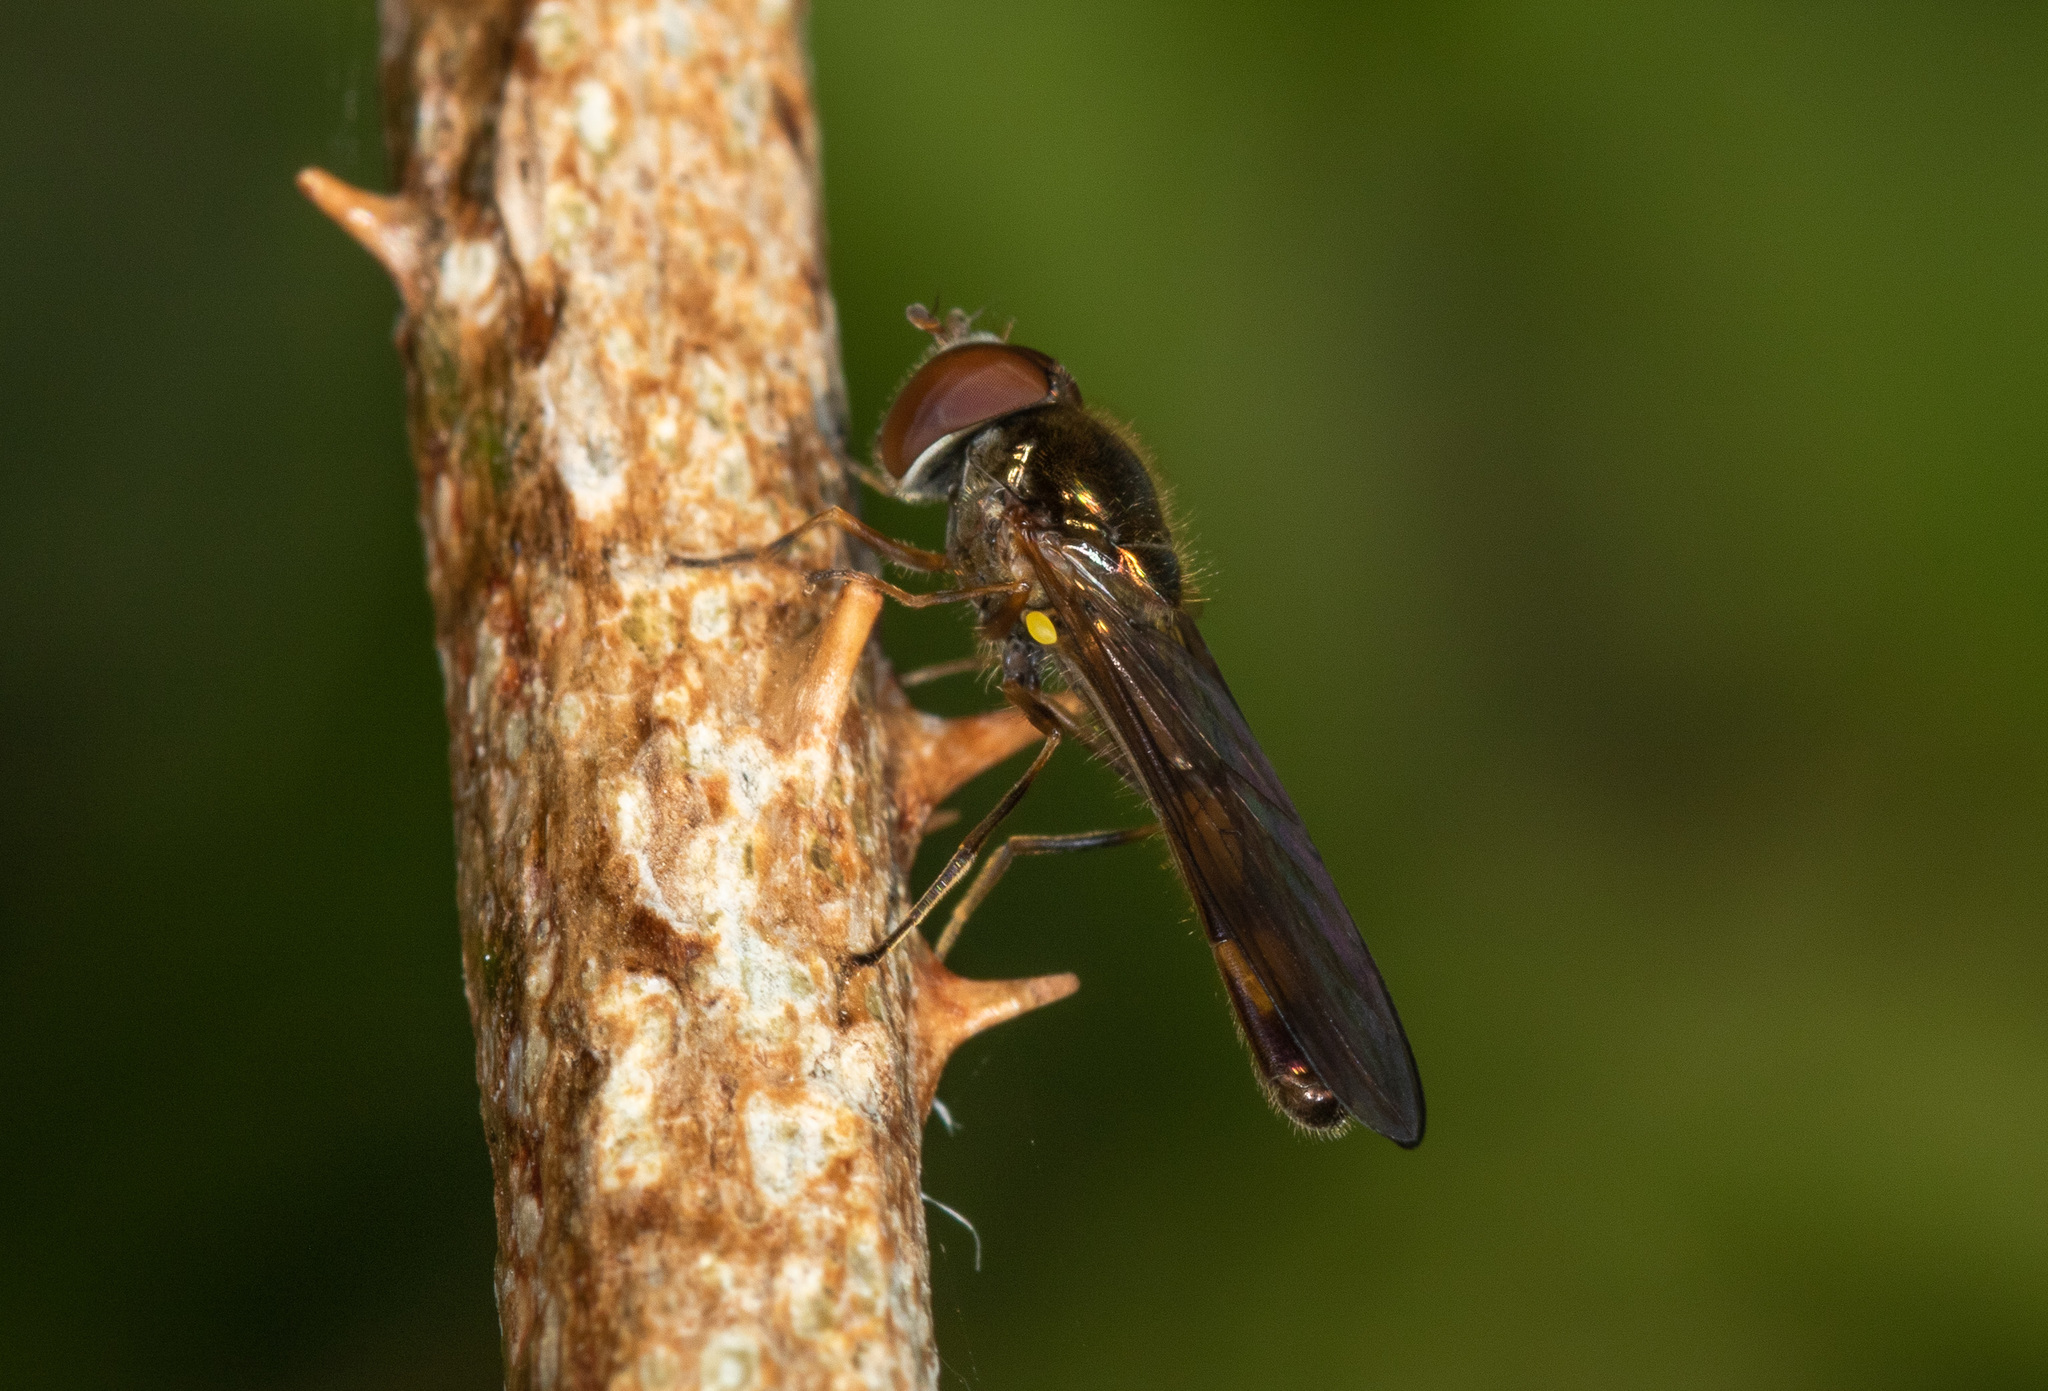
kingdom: Animalia
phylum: Arthropoda
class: Insecta
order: Diptera
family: Syrphidae
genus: Melanostoma
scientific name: Melanostoma scalare
